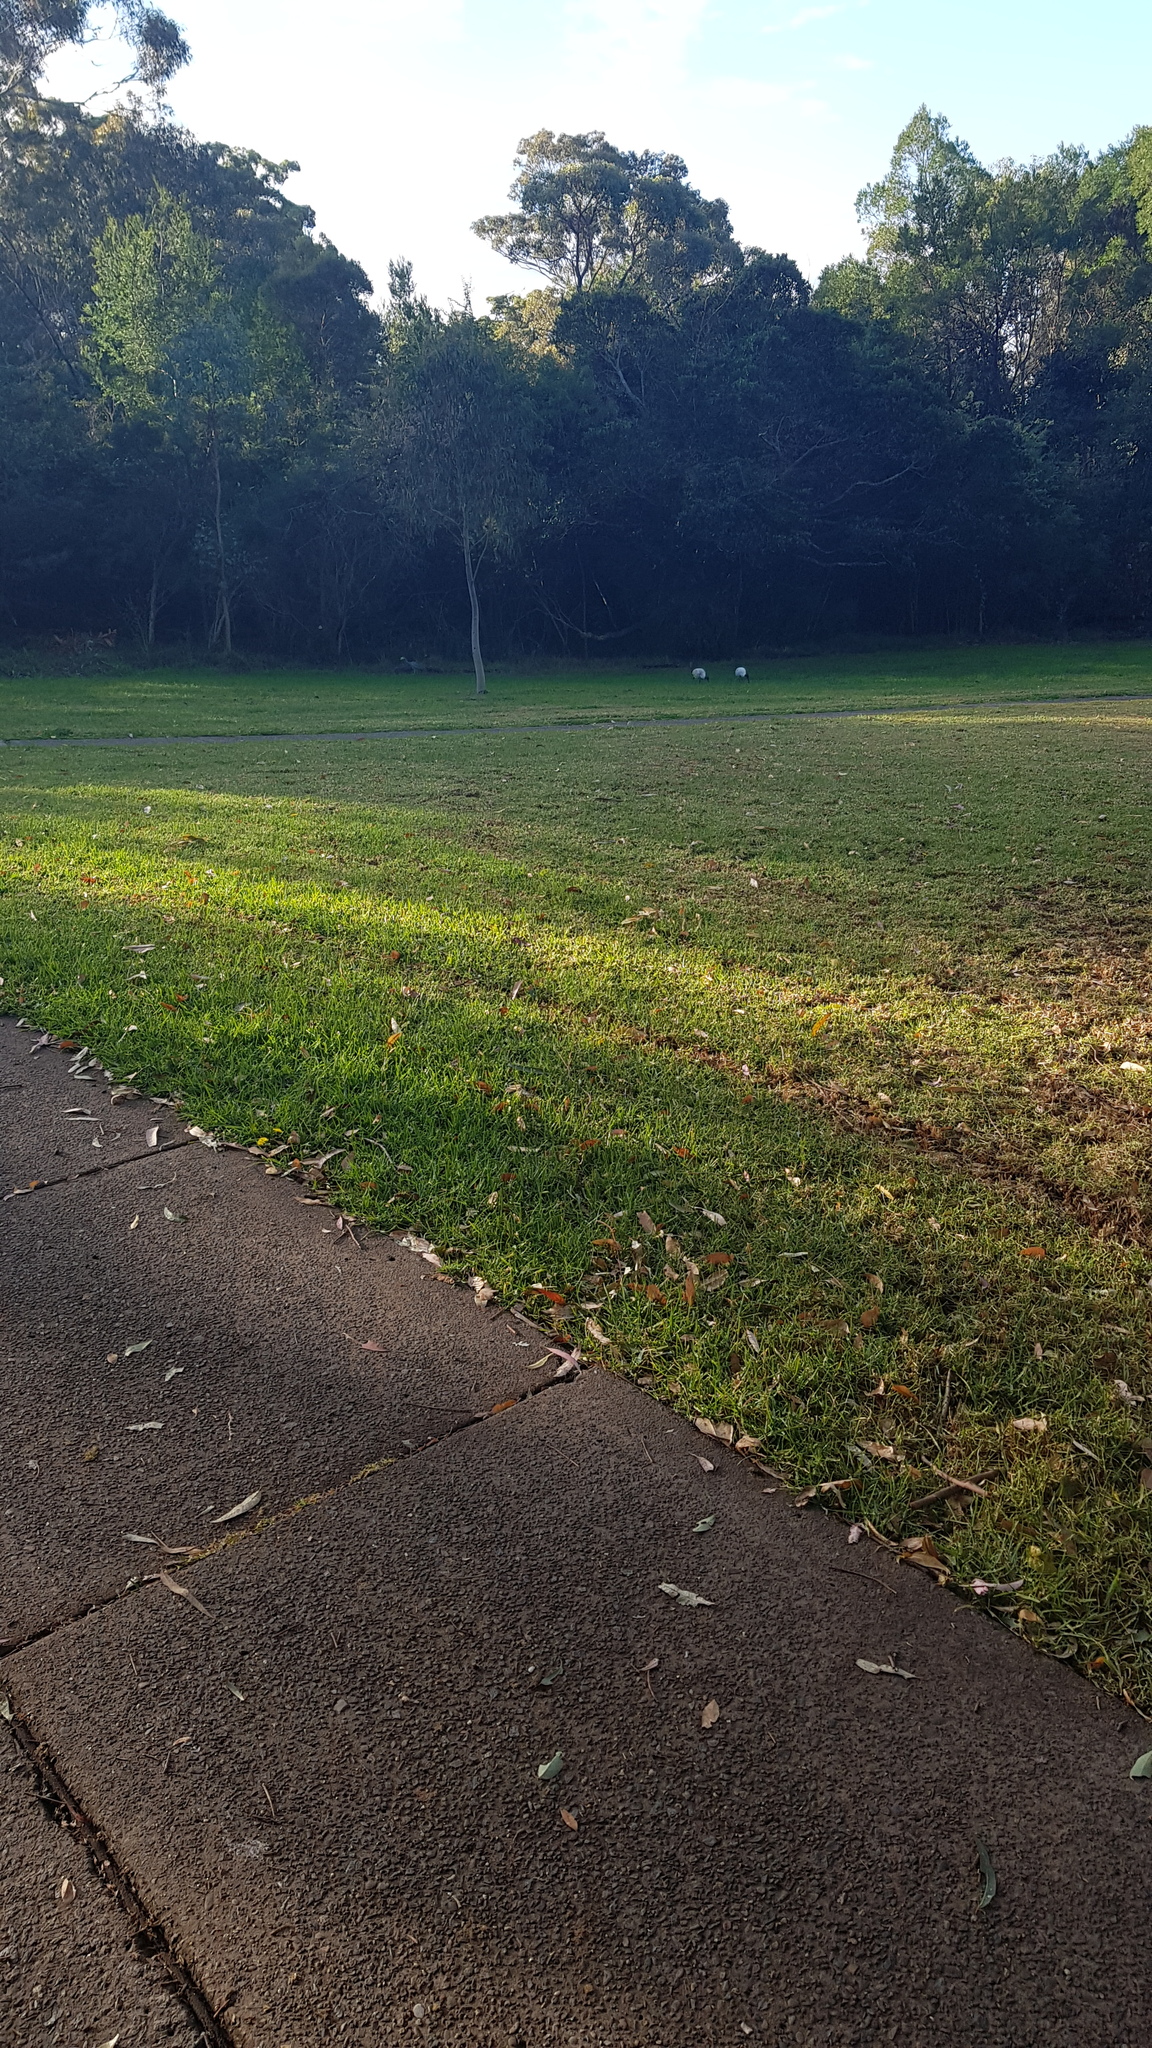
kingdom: Animalia
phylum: Chordata
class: Aves
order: Pelecaniformes
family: Threskiornithidae
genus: Threskiornis
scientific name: Threskiornis molucca
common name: Australian white ibis
